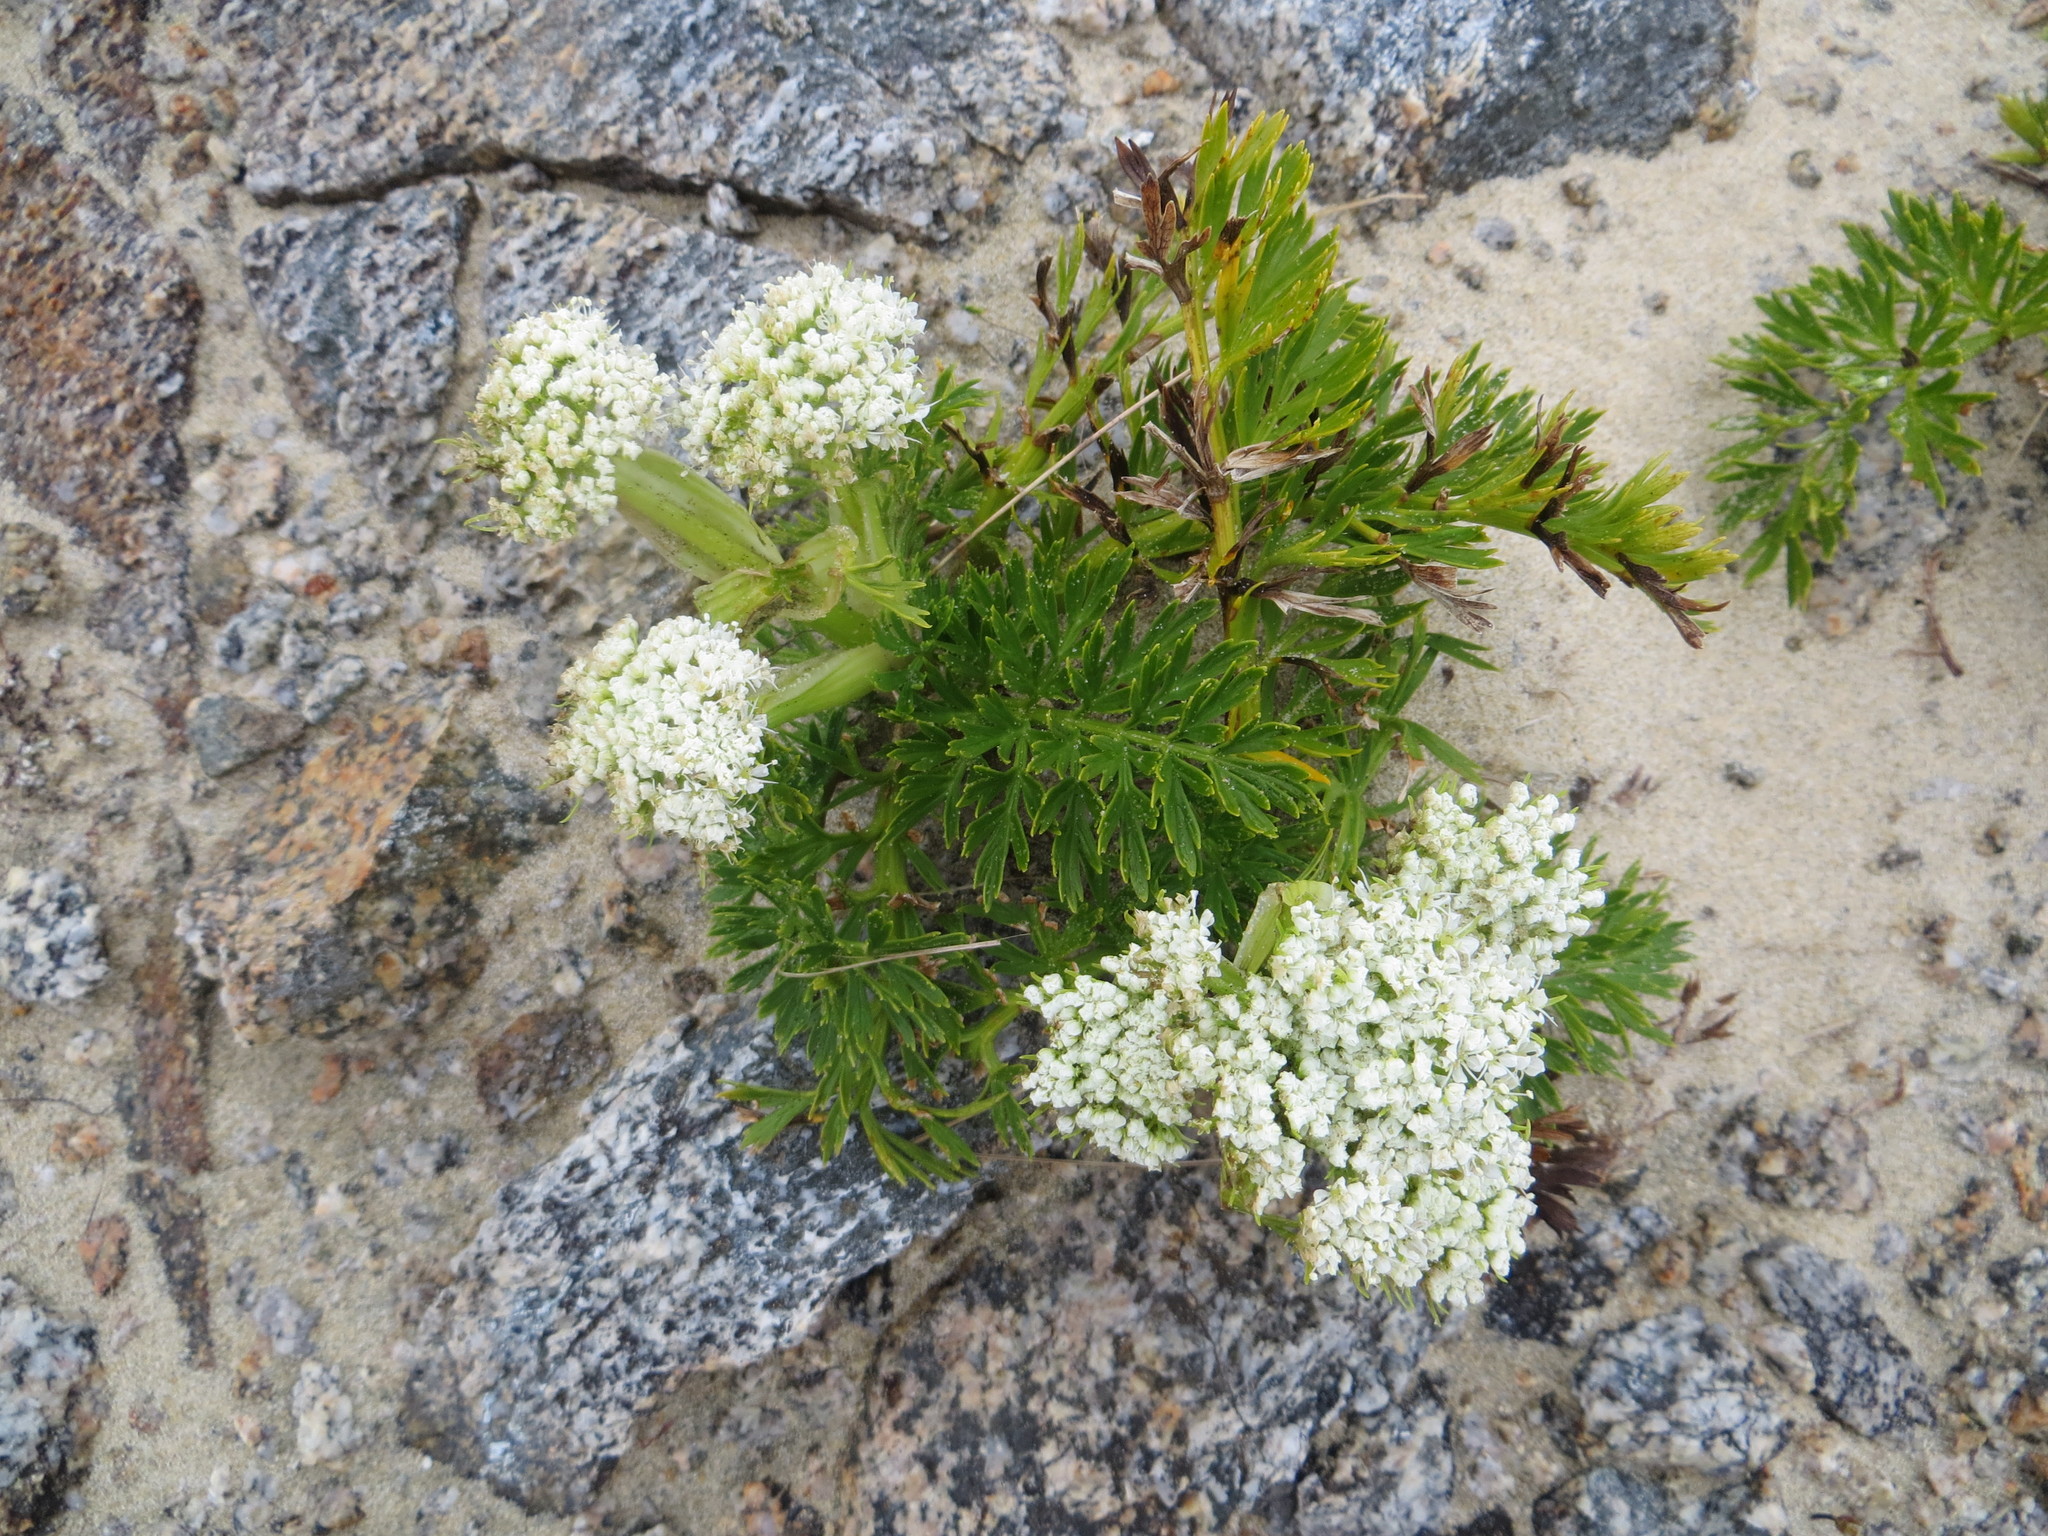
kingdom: Plantae
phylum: Tracheophyta
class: Magnoliopsida
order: Apiales
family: Apiaceae
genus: Anisotome
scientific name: Anisotome lyallii
